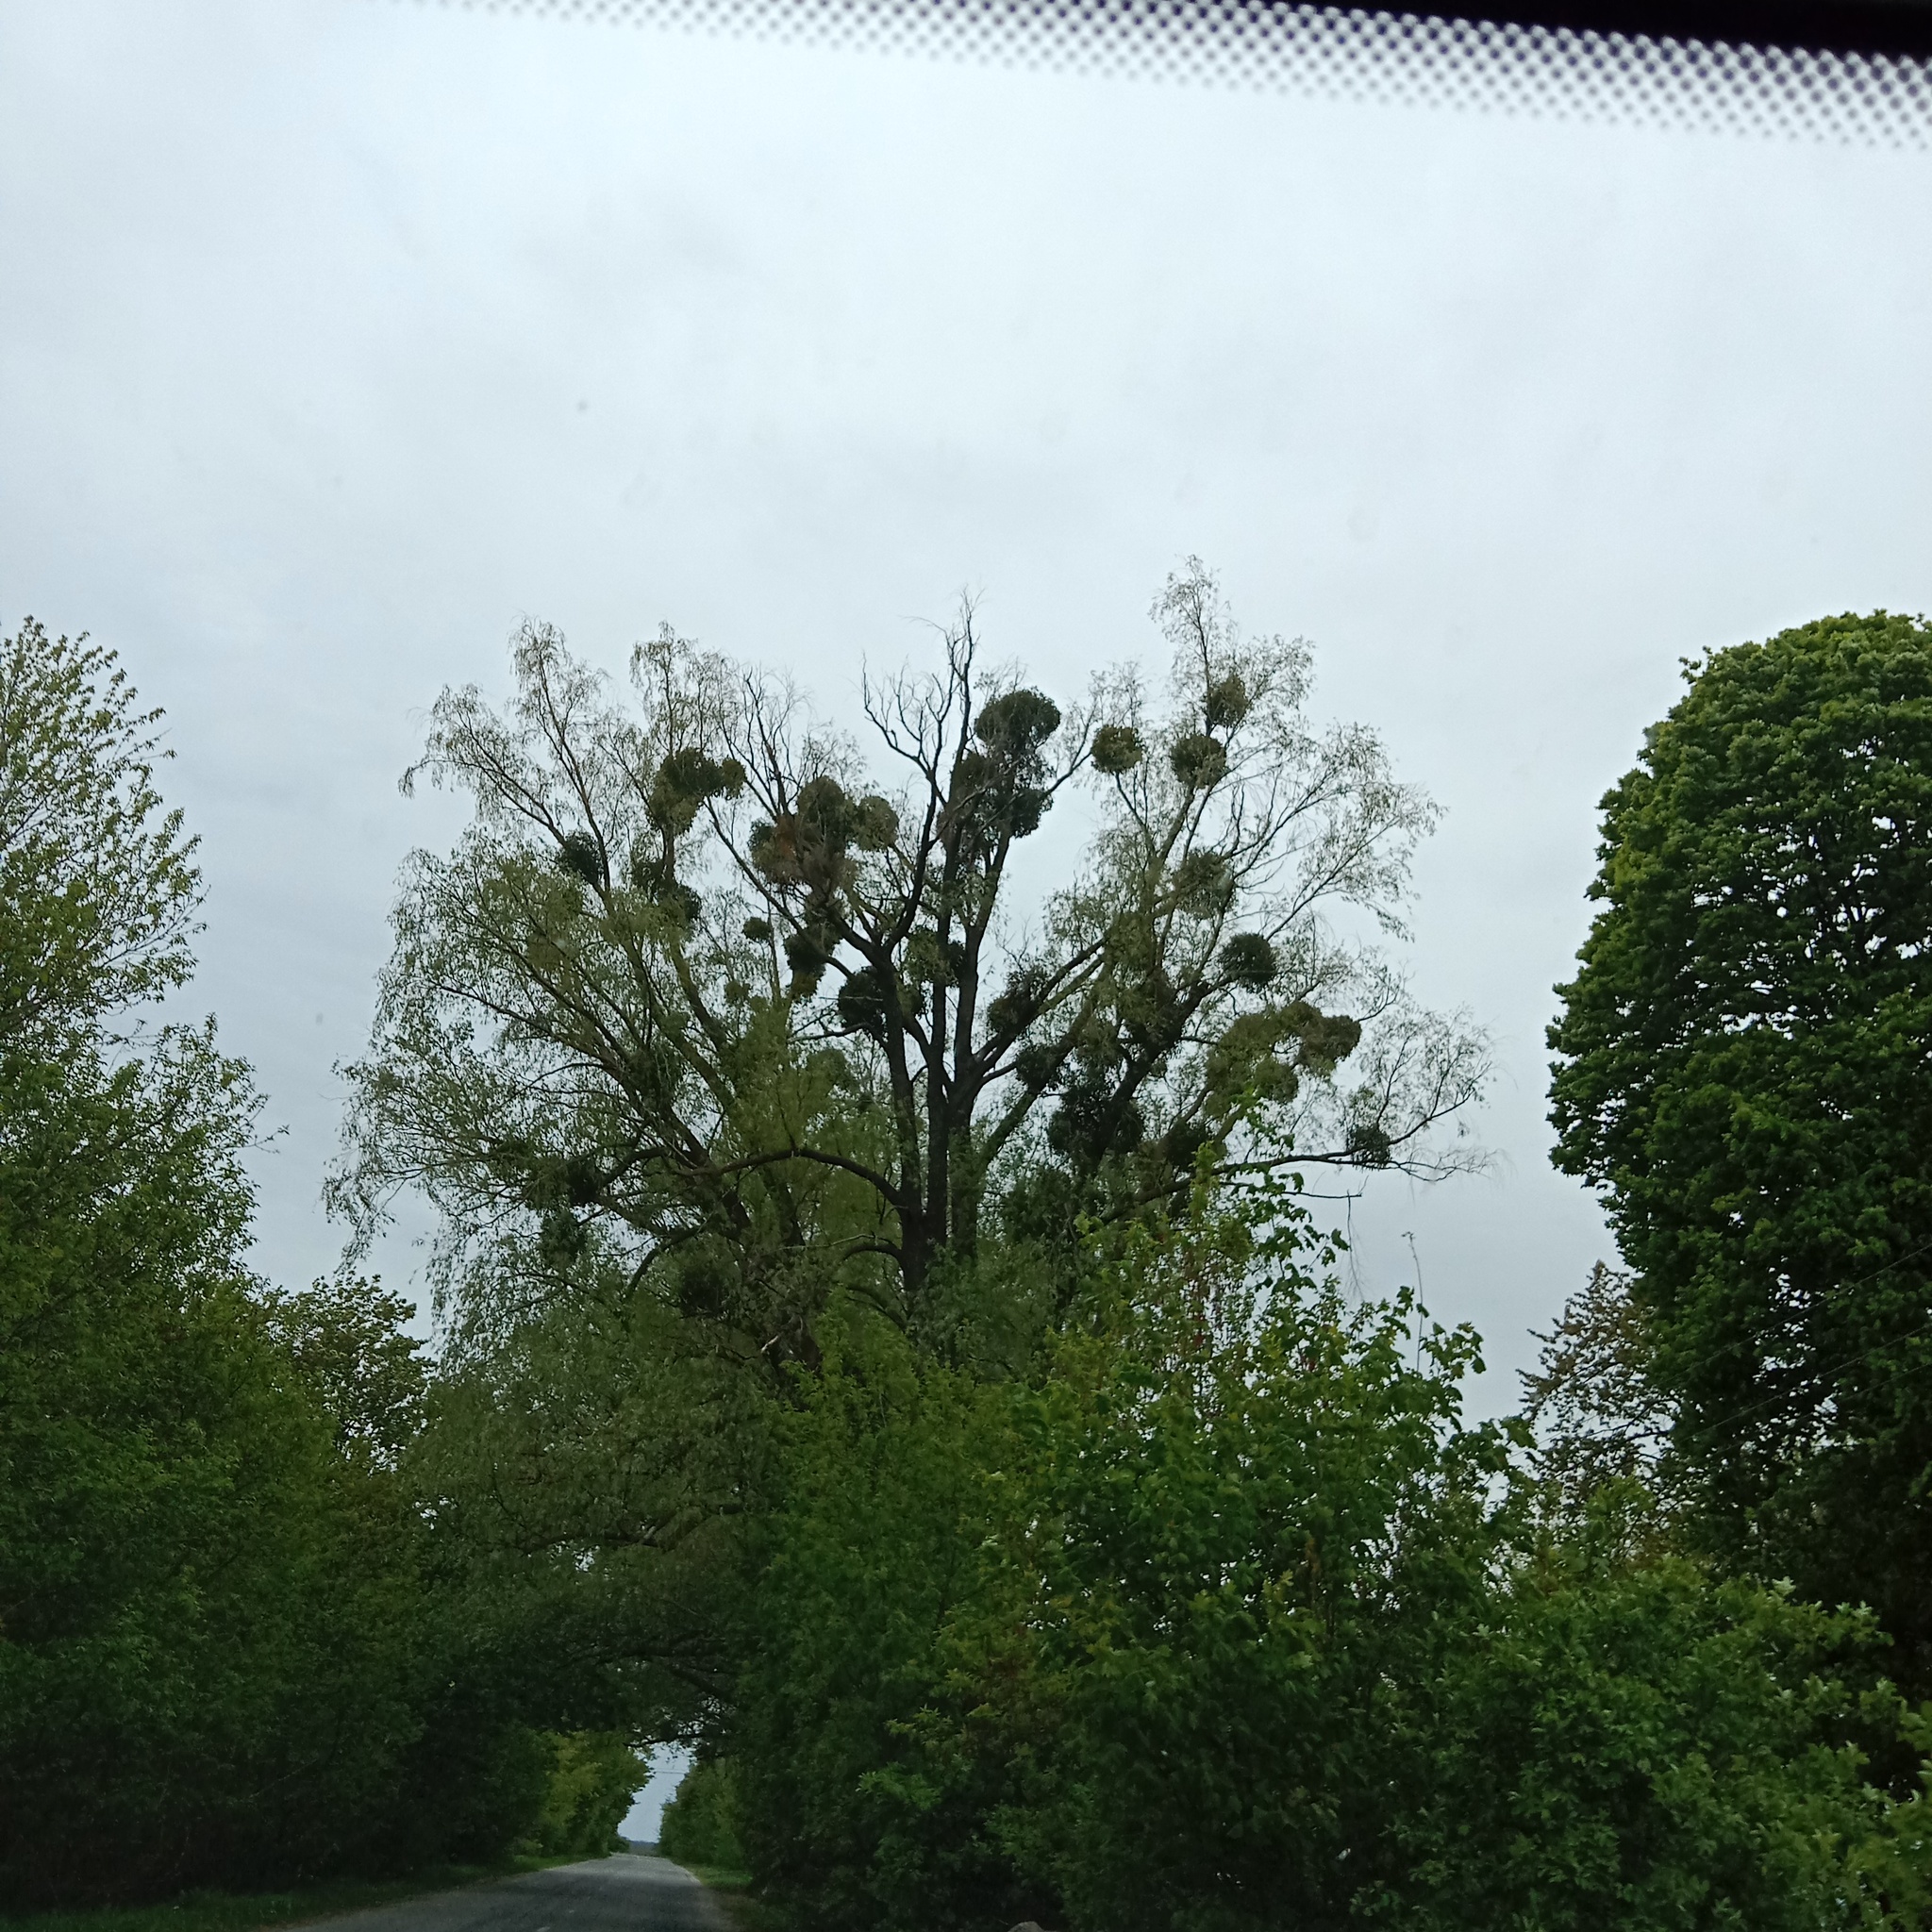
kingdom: Plantae
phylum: Tracheophyta
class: Magnoliopsida
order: Santalales
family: Viscaceae
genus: Viscum
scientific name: Viscum album
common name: Mistletoe
